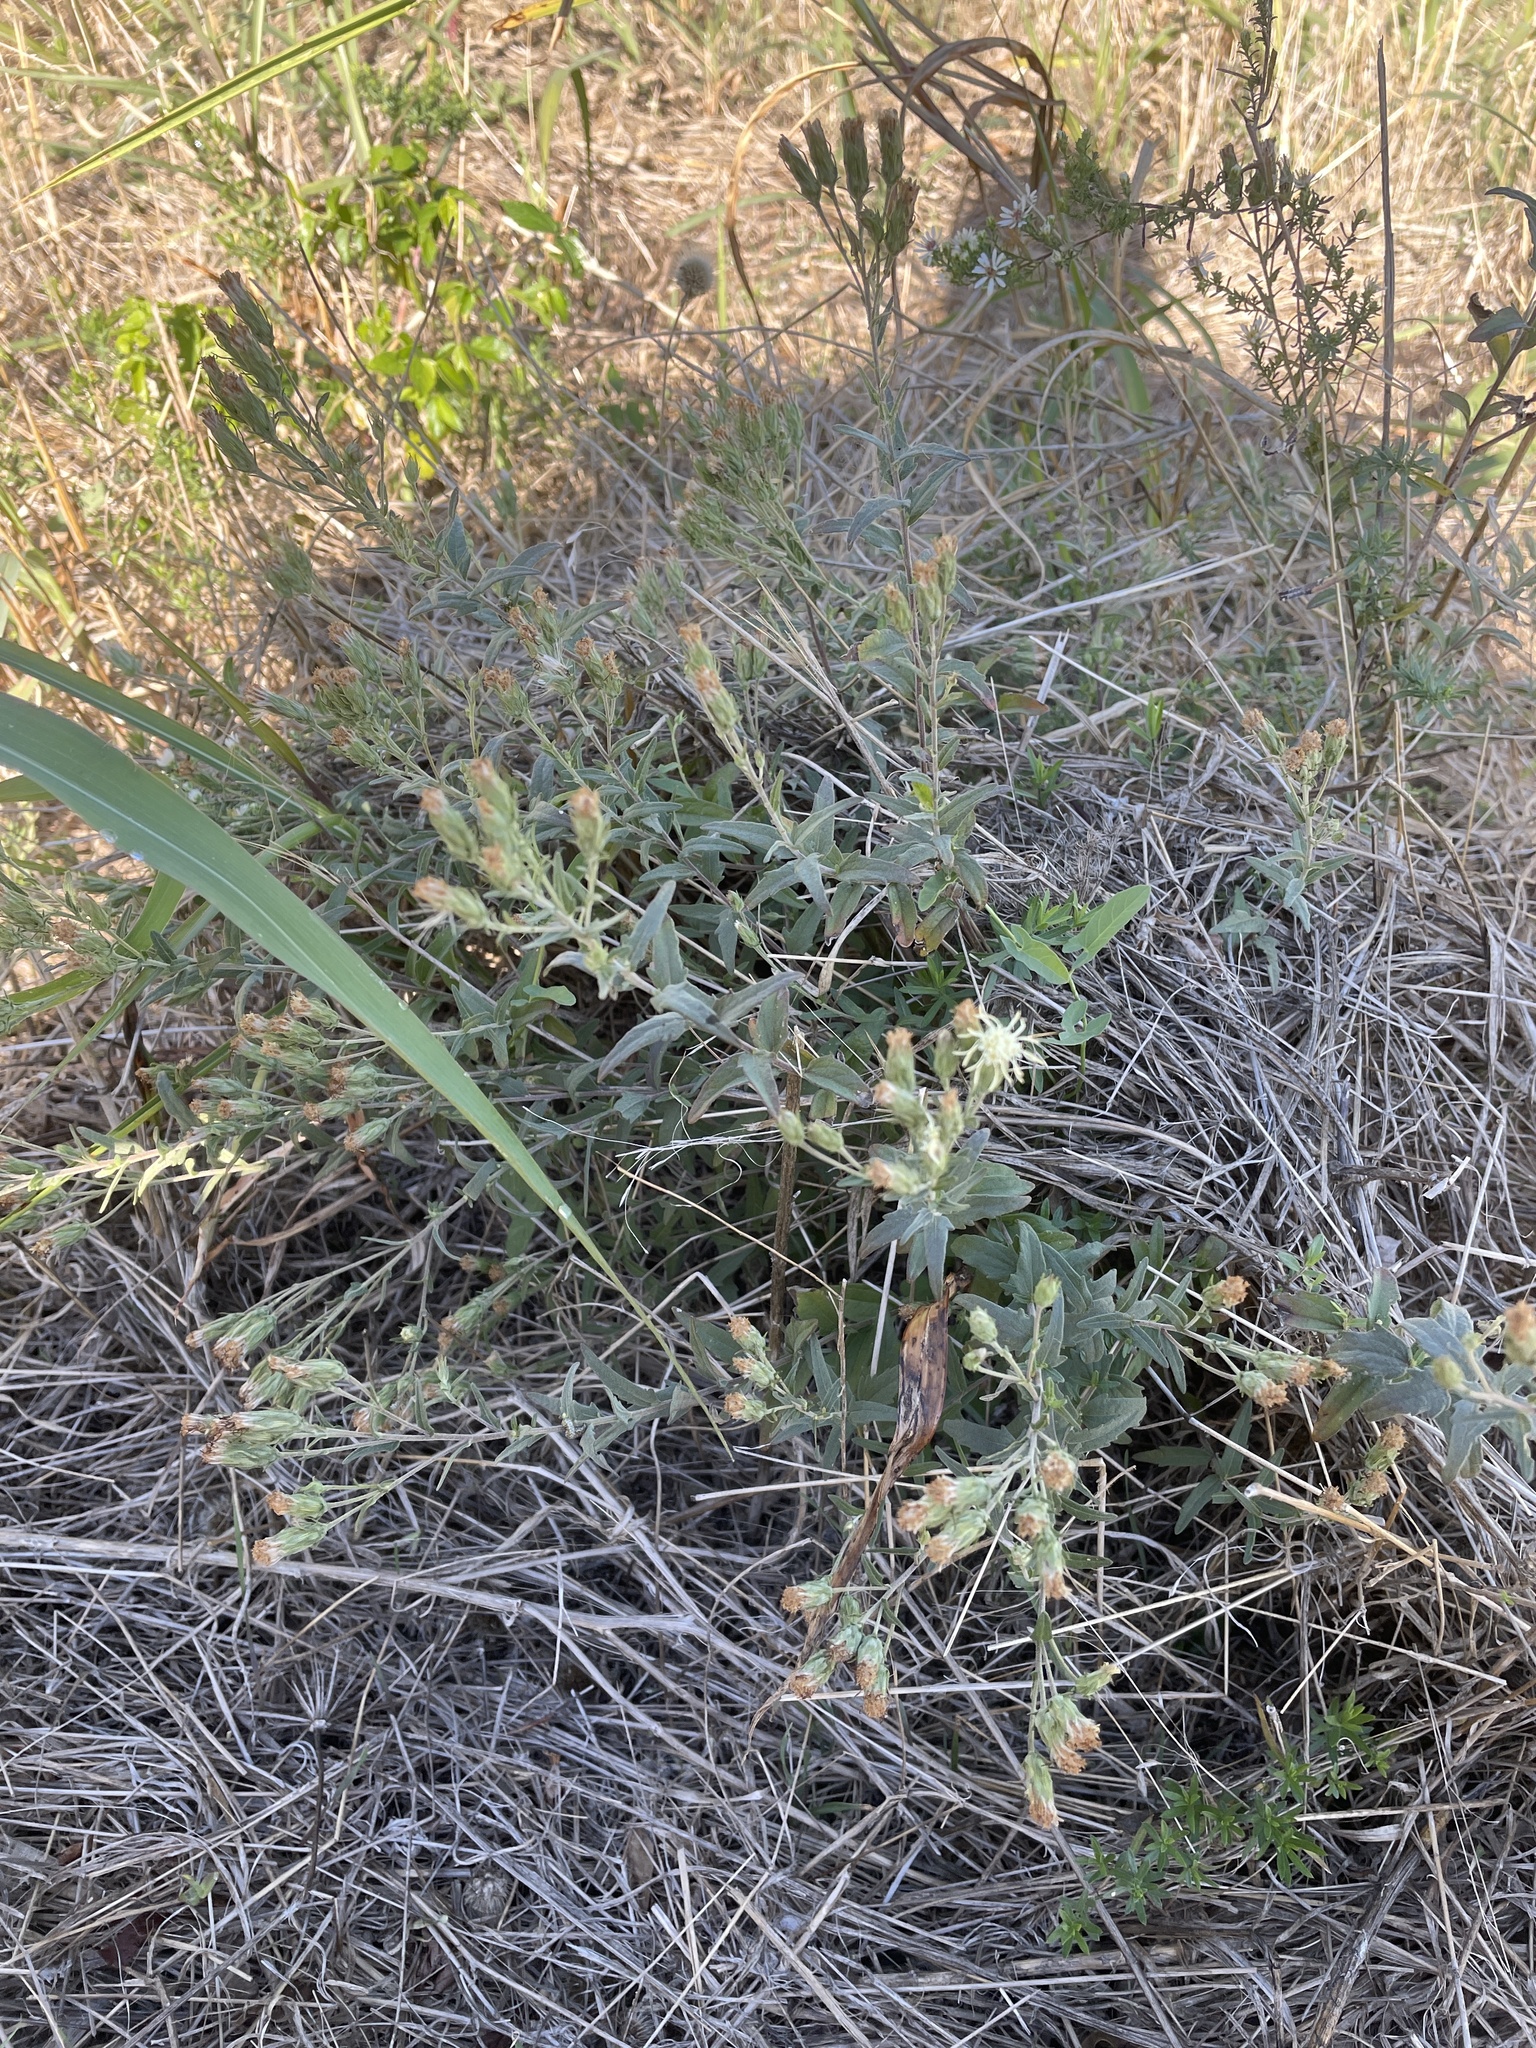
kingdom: Plantae
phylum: Tracheophyta
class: Magnoliopsida
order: Asterales
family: Asteraceae
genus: Brickellia
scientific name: Brickellia eupatorioides
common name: False boneset
